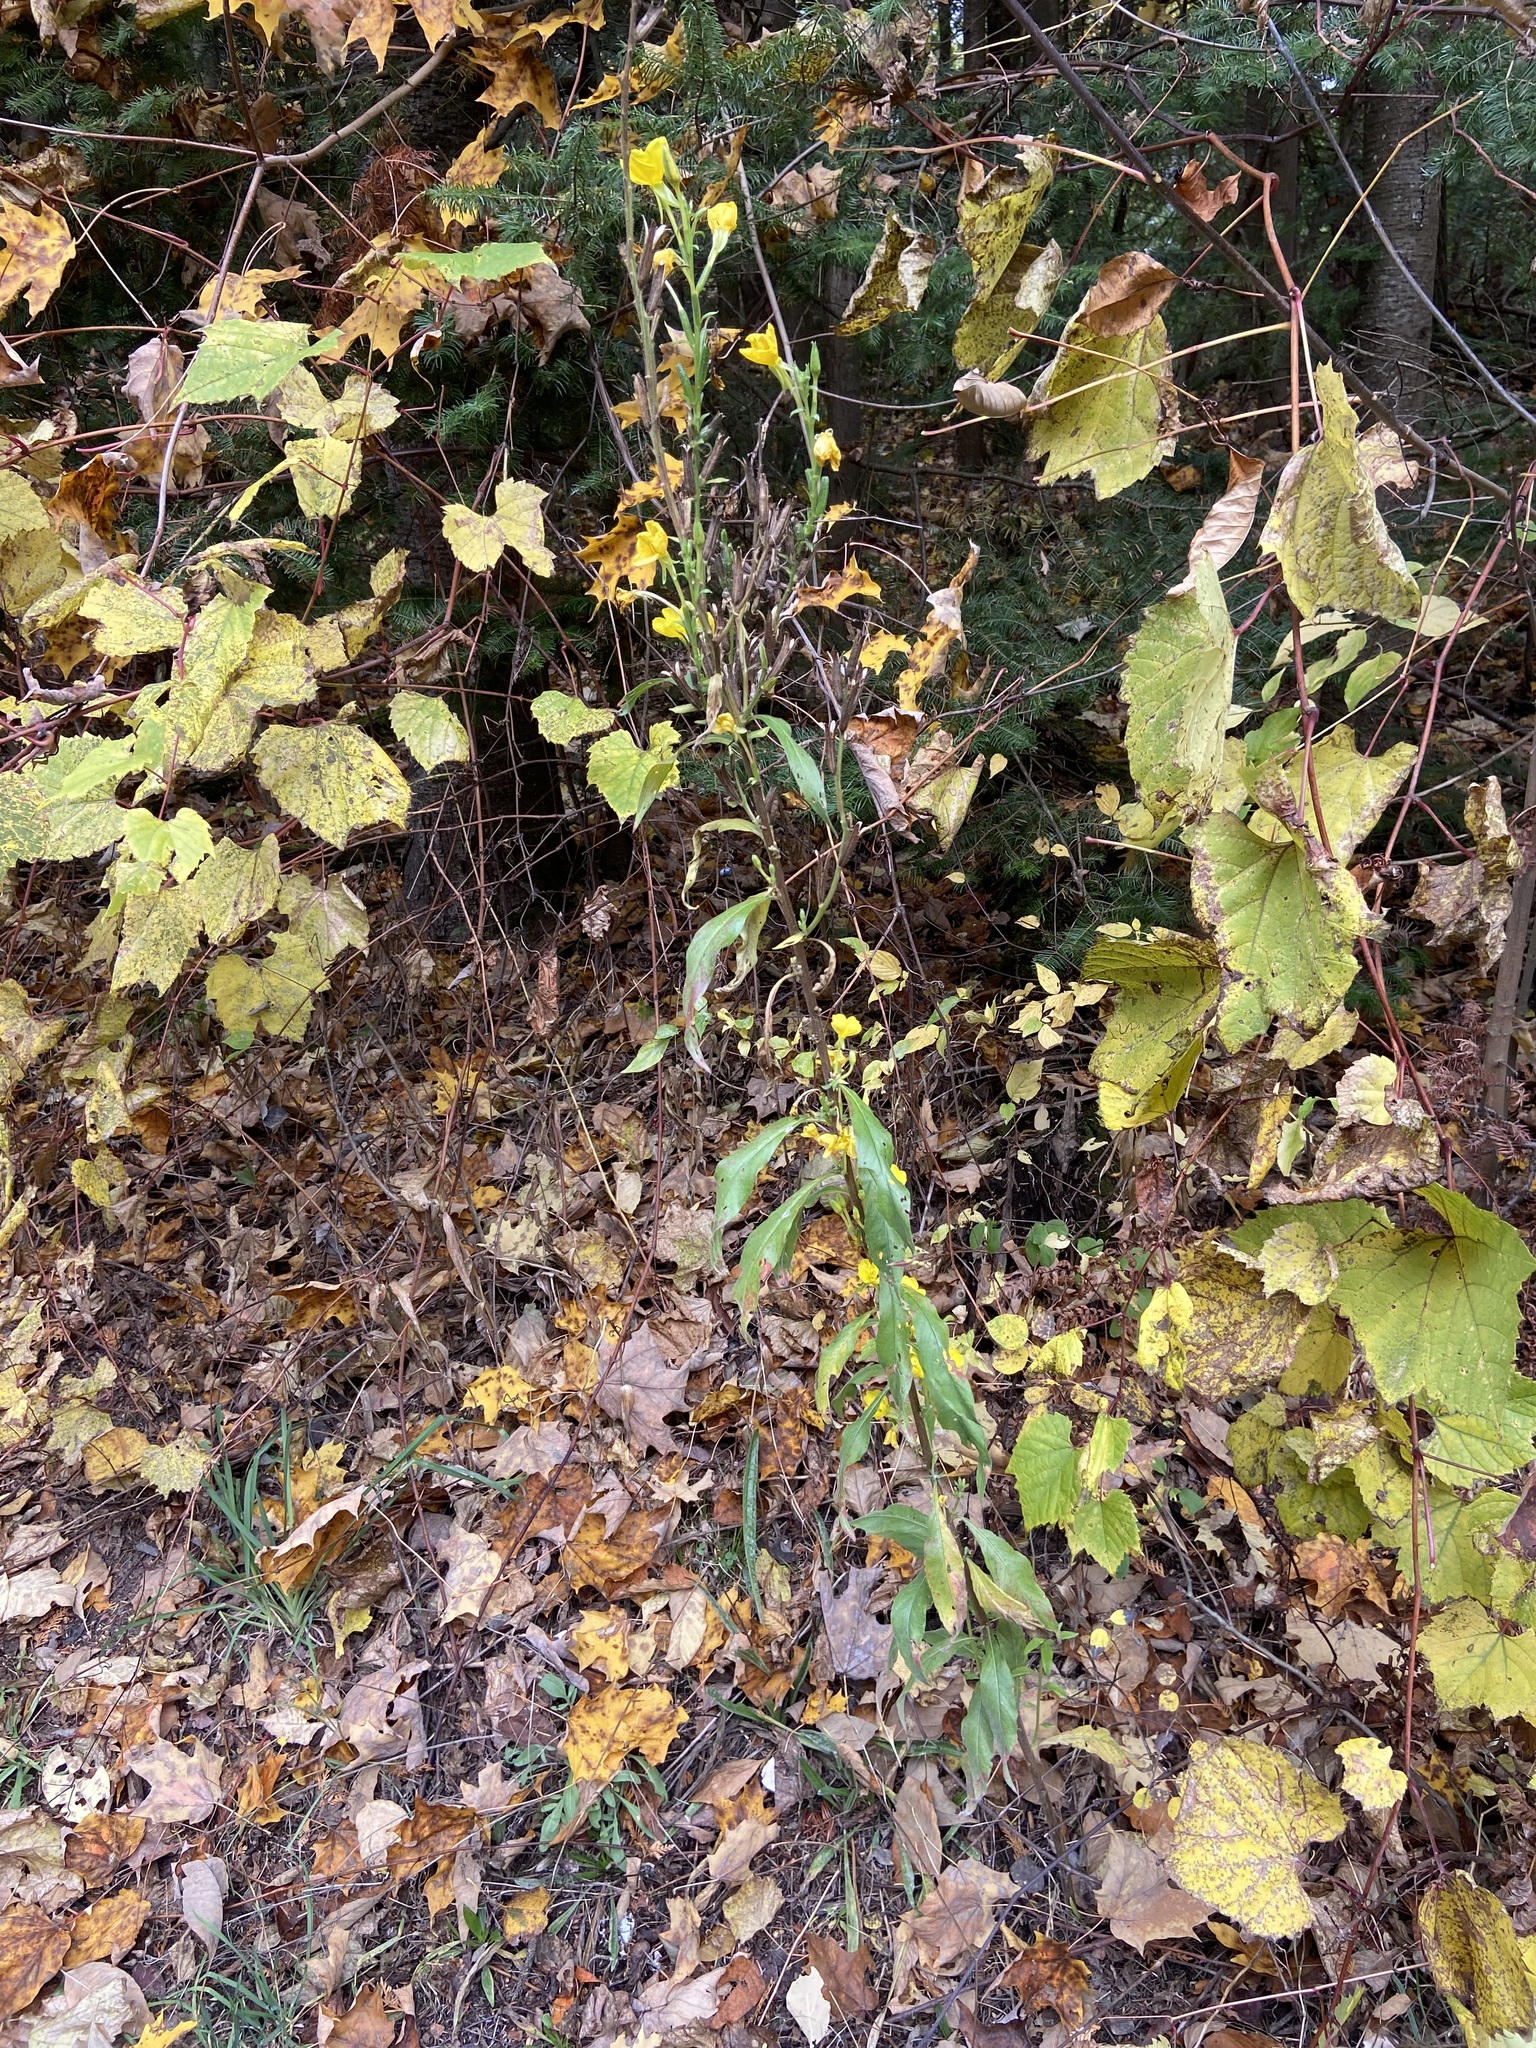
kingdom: Plantae
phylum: Tracheophyta
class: Magnoliopsida
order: Myrtales
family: Onagraceae
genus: Oenothera
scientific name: Oenothera biennis
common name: Common evening-primrose
